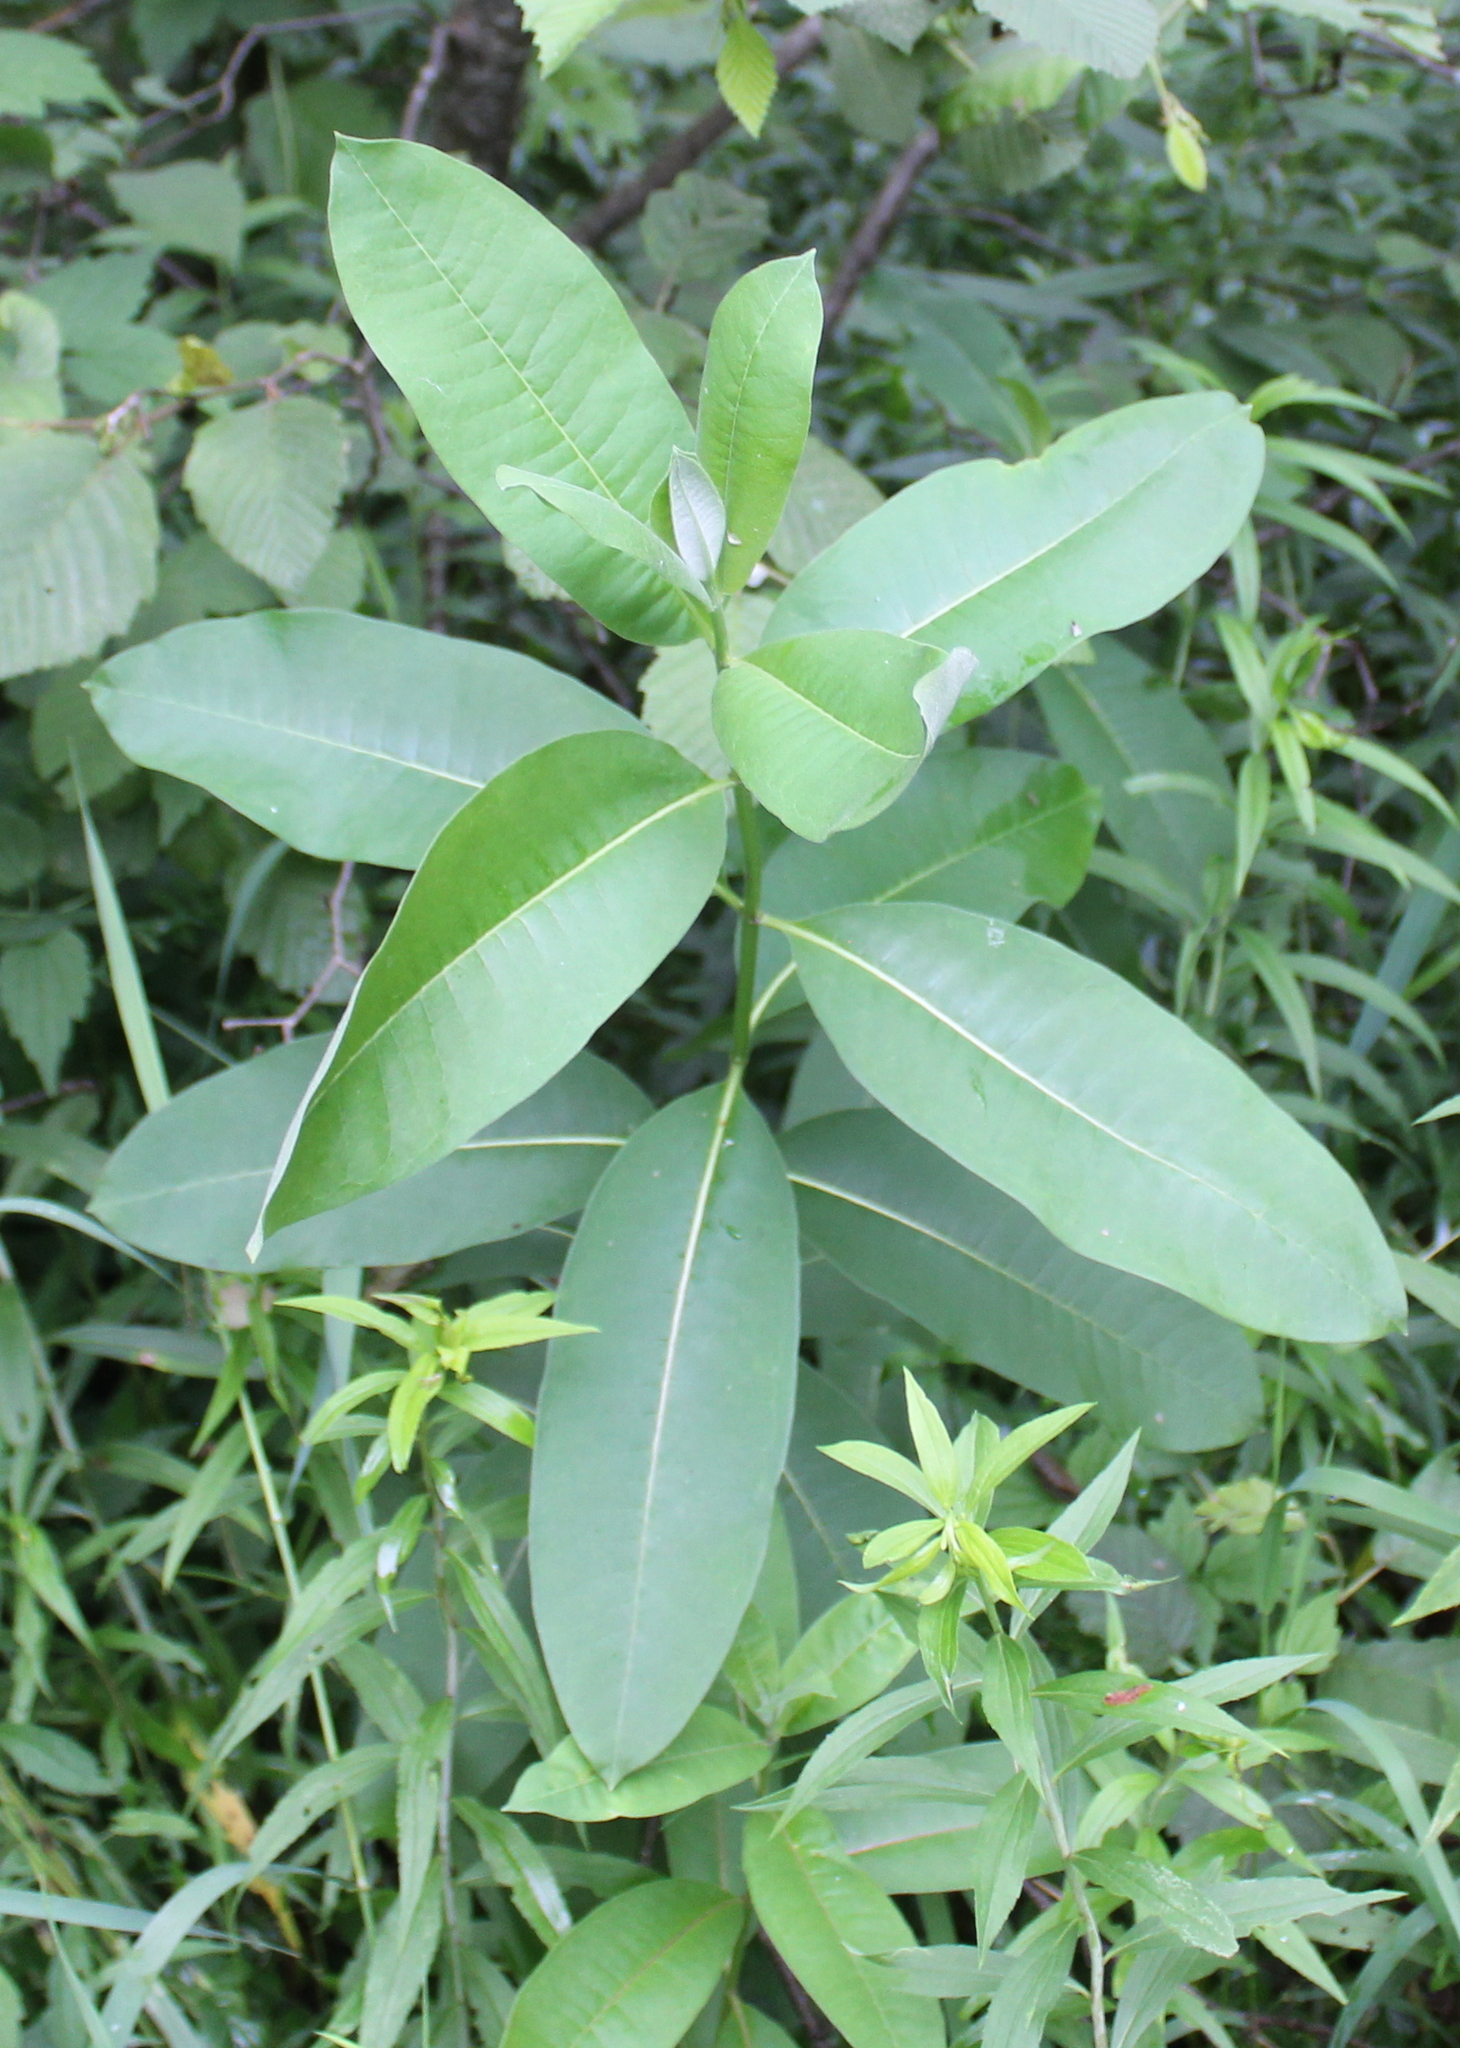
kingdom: Plantae
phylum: Tracheophyta
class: Magnoliopsida
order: Gentianales
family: Apocynaceae
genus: Asclepias
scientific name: Asclepias syriaca
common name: Common milkweed
